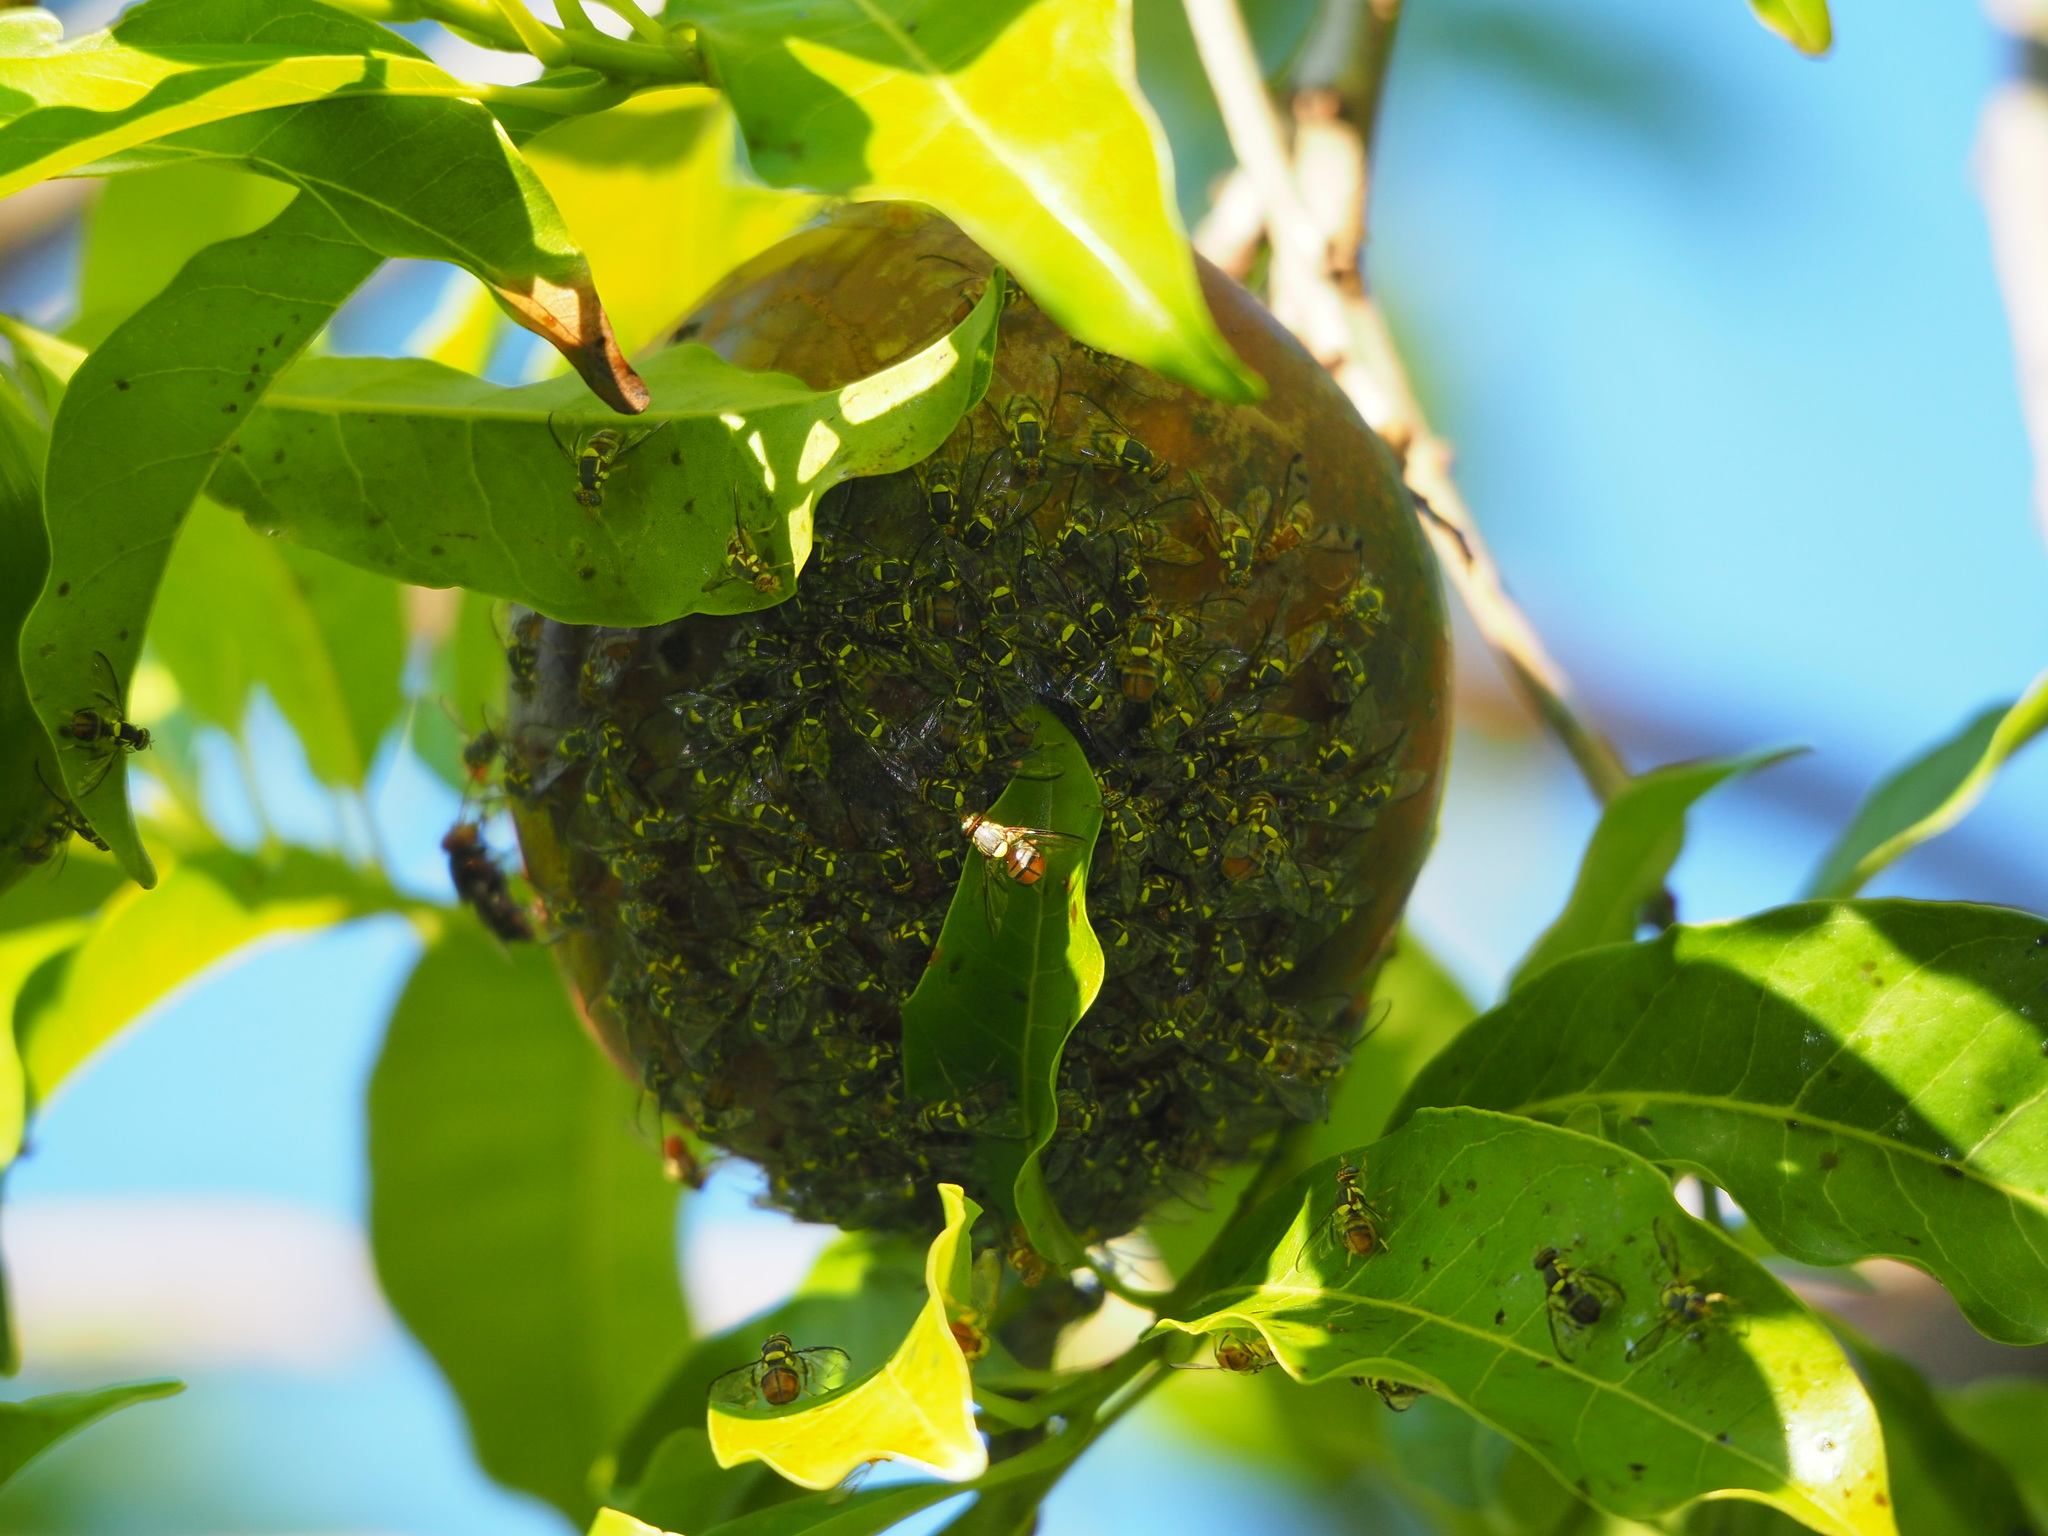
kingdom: Animalia
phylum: Arthropoda
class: Insecta
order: Diptera
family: Tephritidae
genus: Bactrocera
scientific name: Bactrocera dorsalis
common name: Oriental fruit fly
